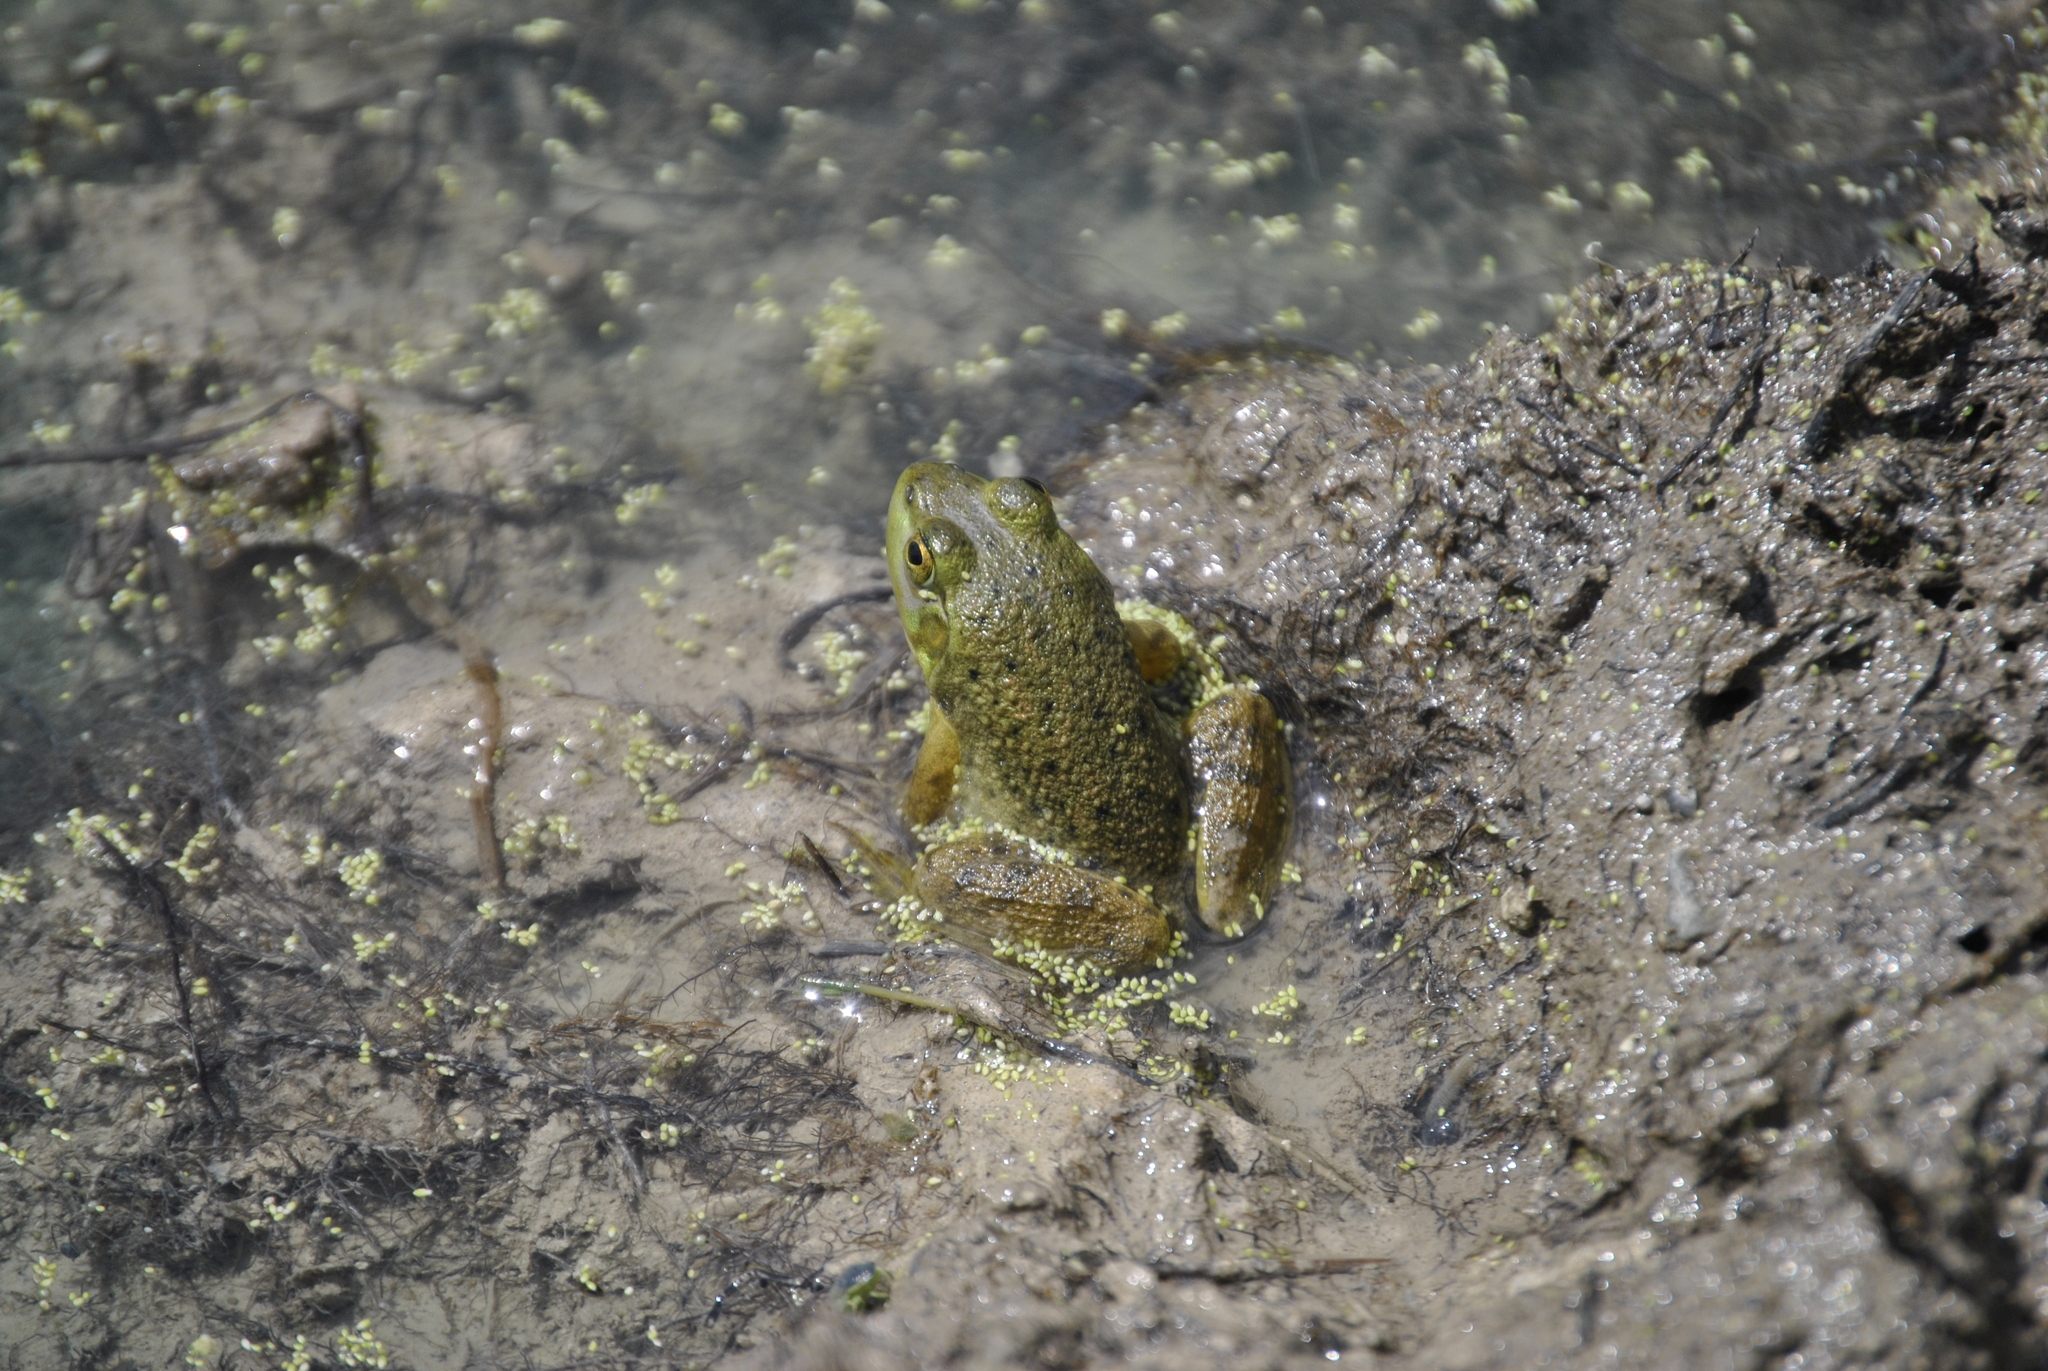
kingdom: Animalia
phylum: Chordata
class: Amphibia
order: Anura
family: Ranidae
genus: Lithobates
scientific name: Lithobates catesbeianus
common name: American bullfrog
